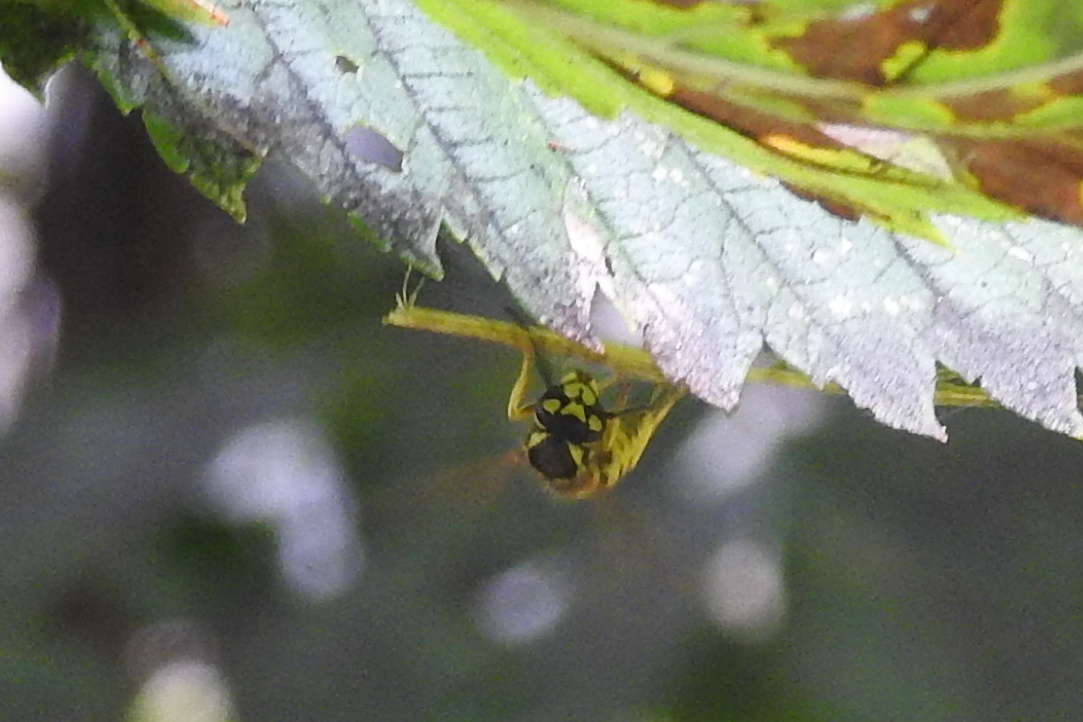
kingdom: Animalia
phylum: Arthropoda
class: Insecta
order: Hymenoptera
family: Vespidae
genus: Vespula
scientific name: Vespula
